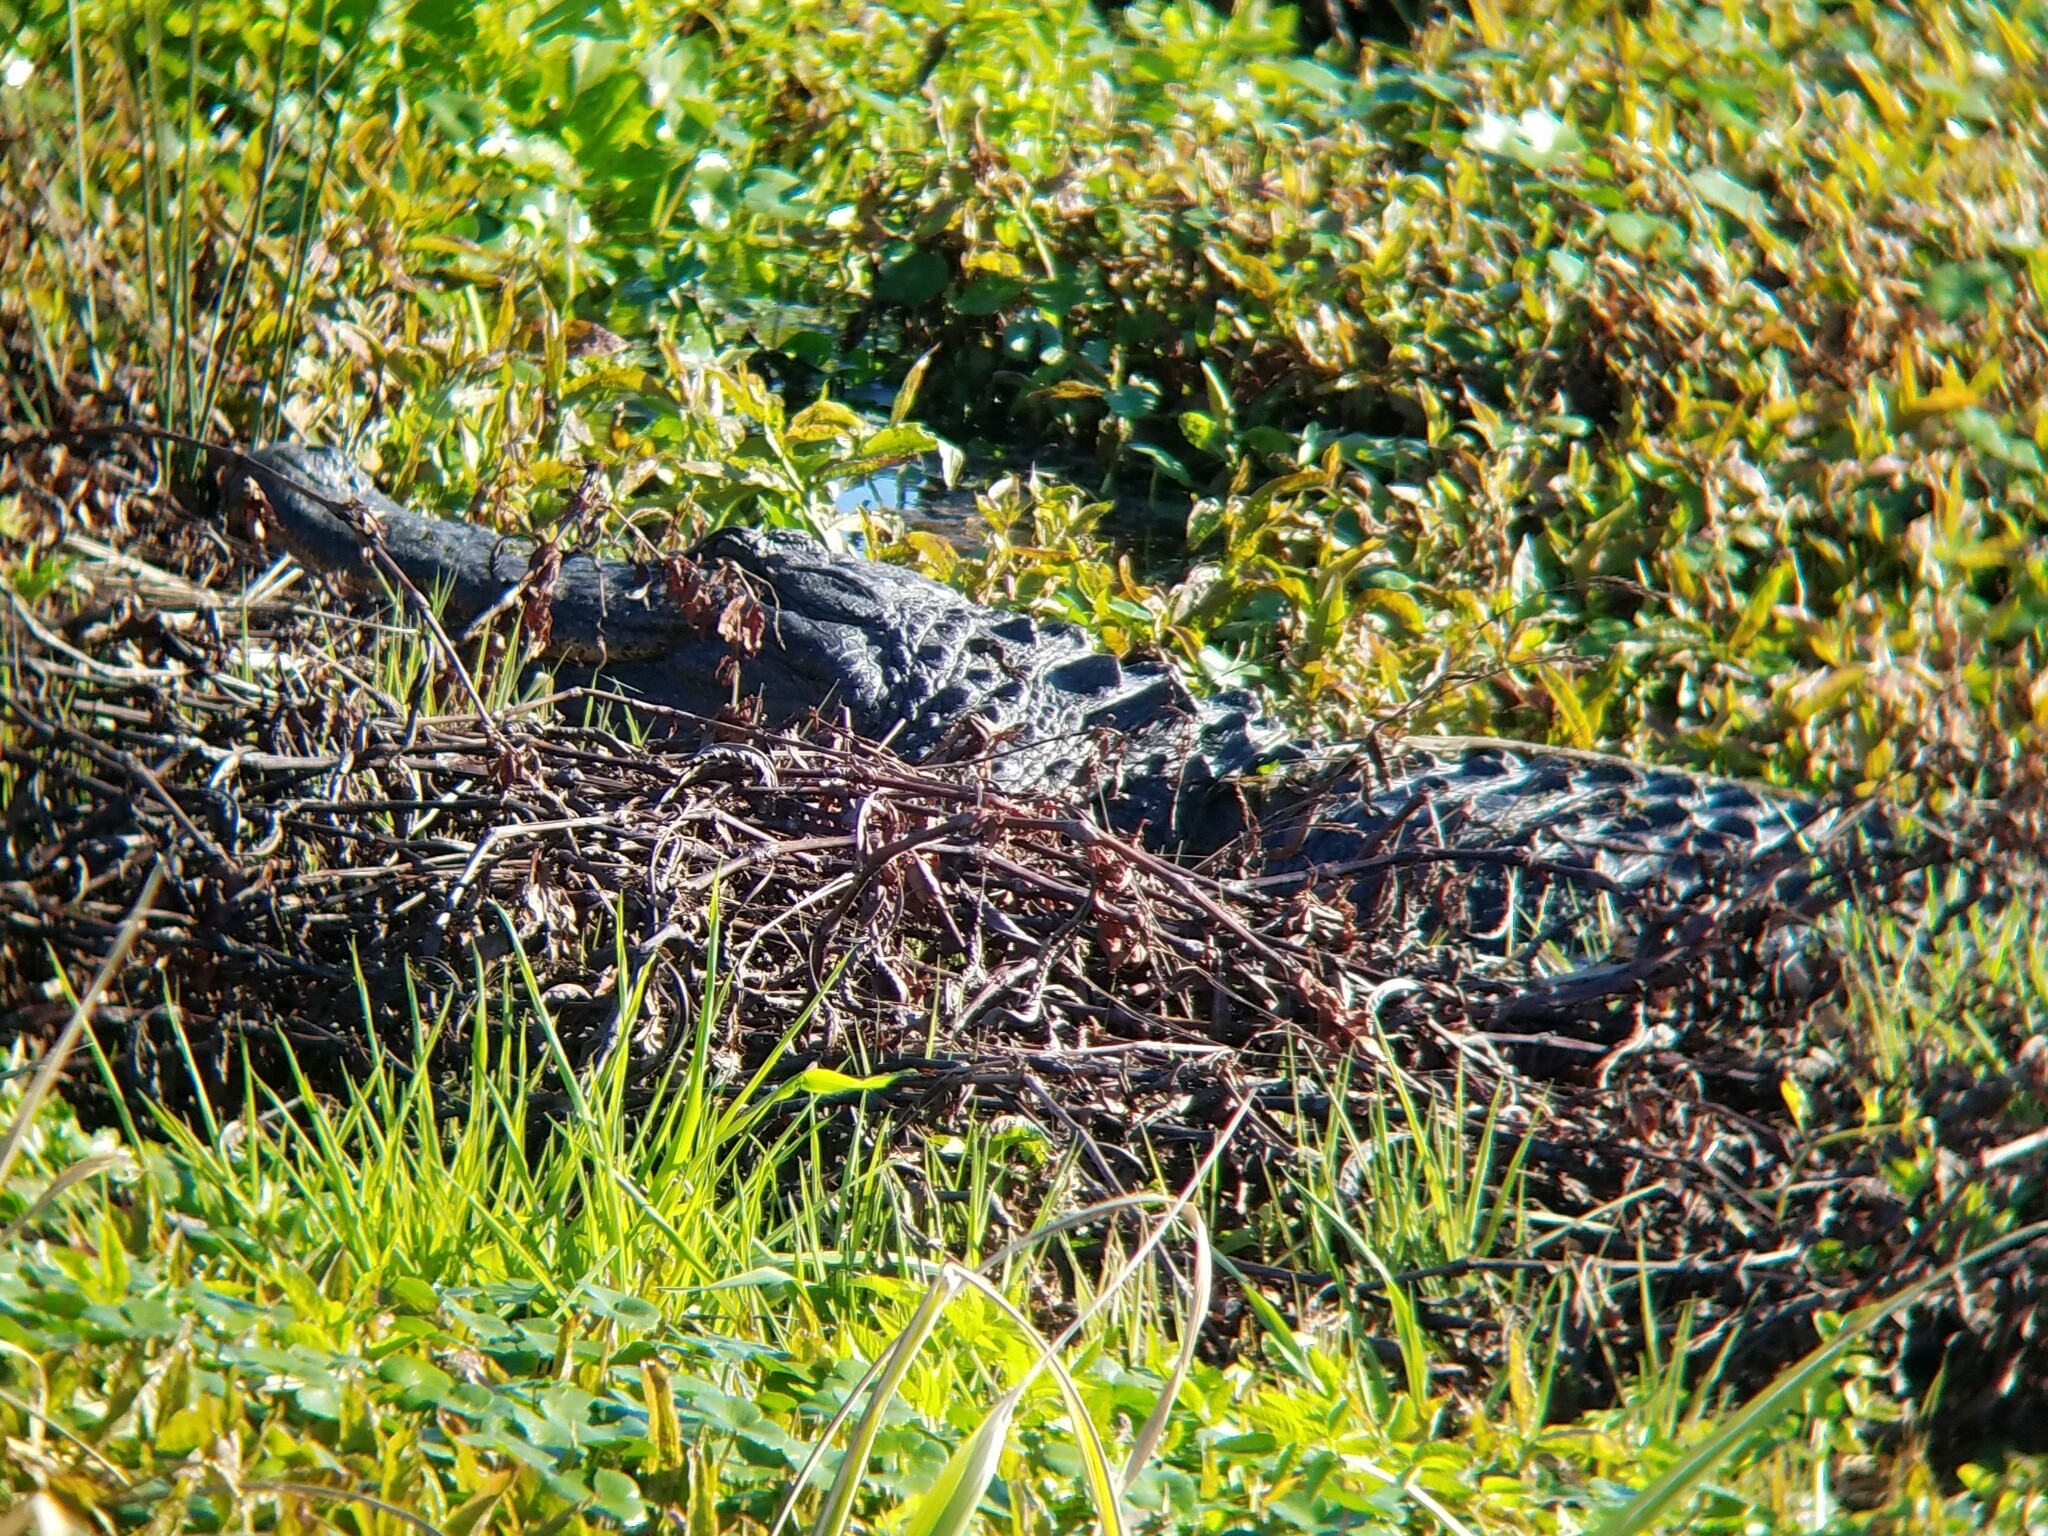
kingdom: Animalia
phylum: Chordata
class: Crocodylia
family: Alligatoridae
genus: Alligator
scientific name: Alligator mississippiensis
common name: American alligator
